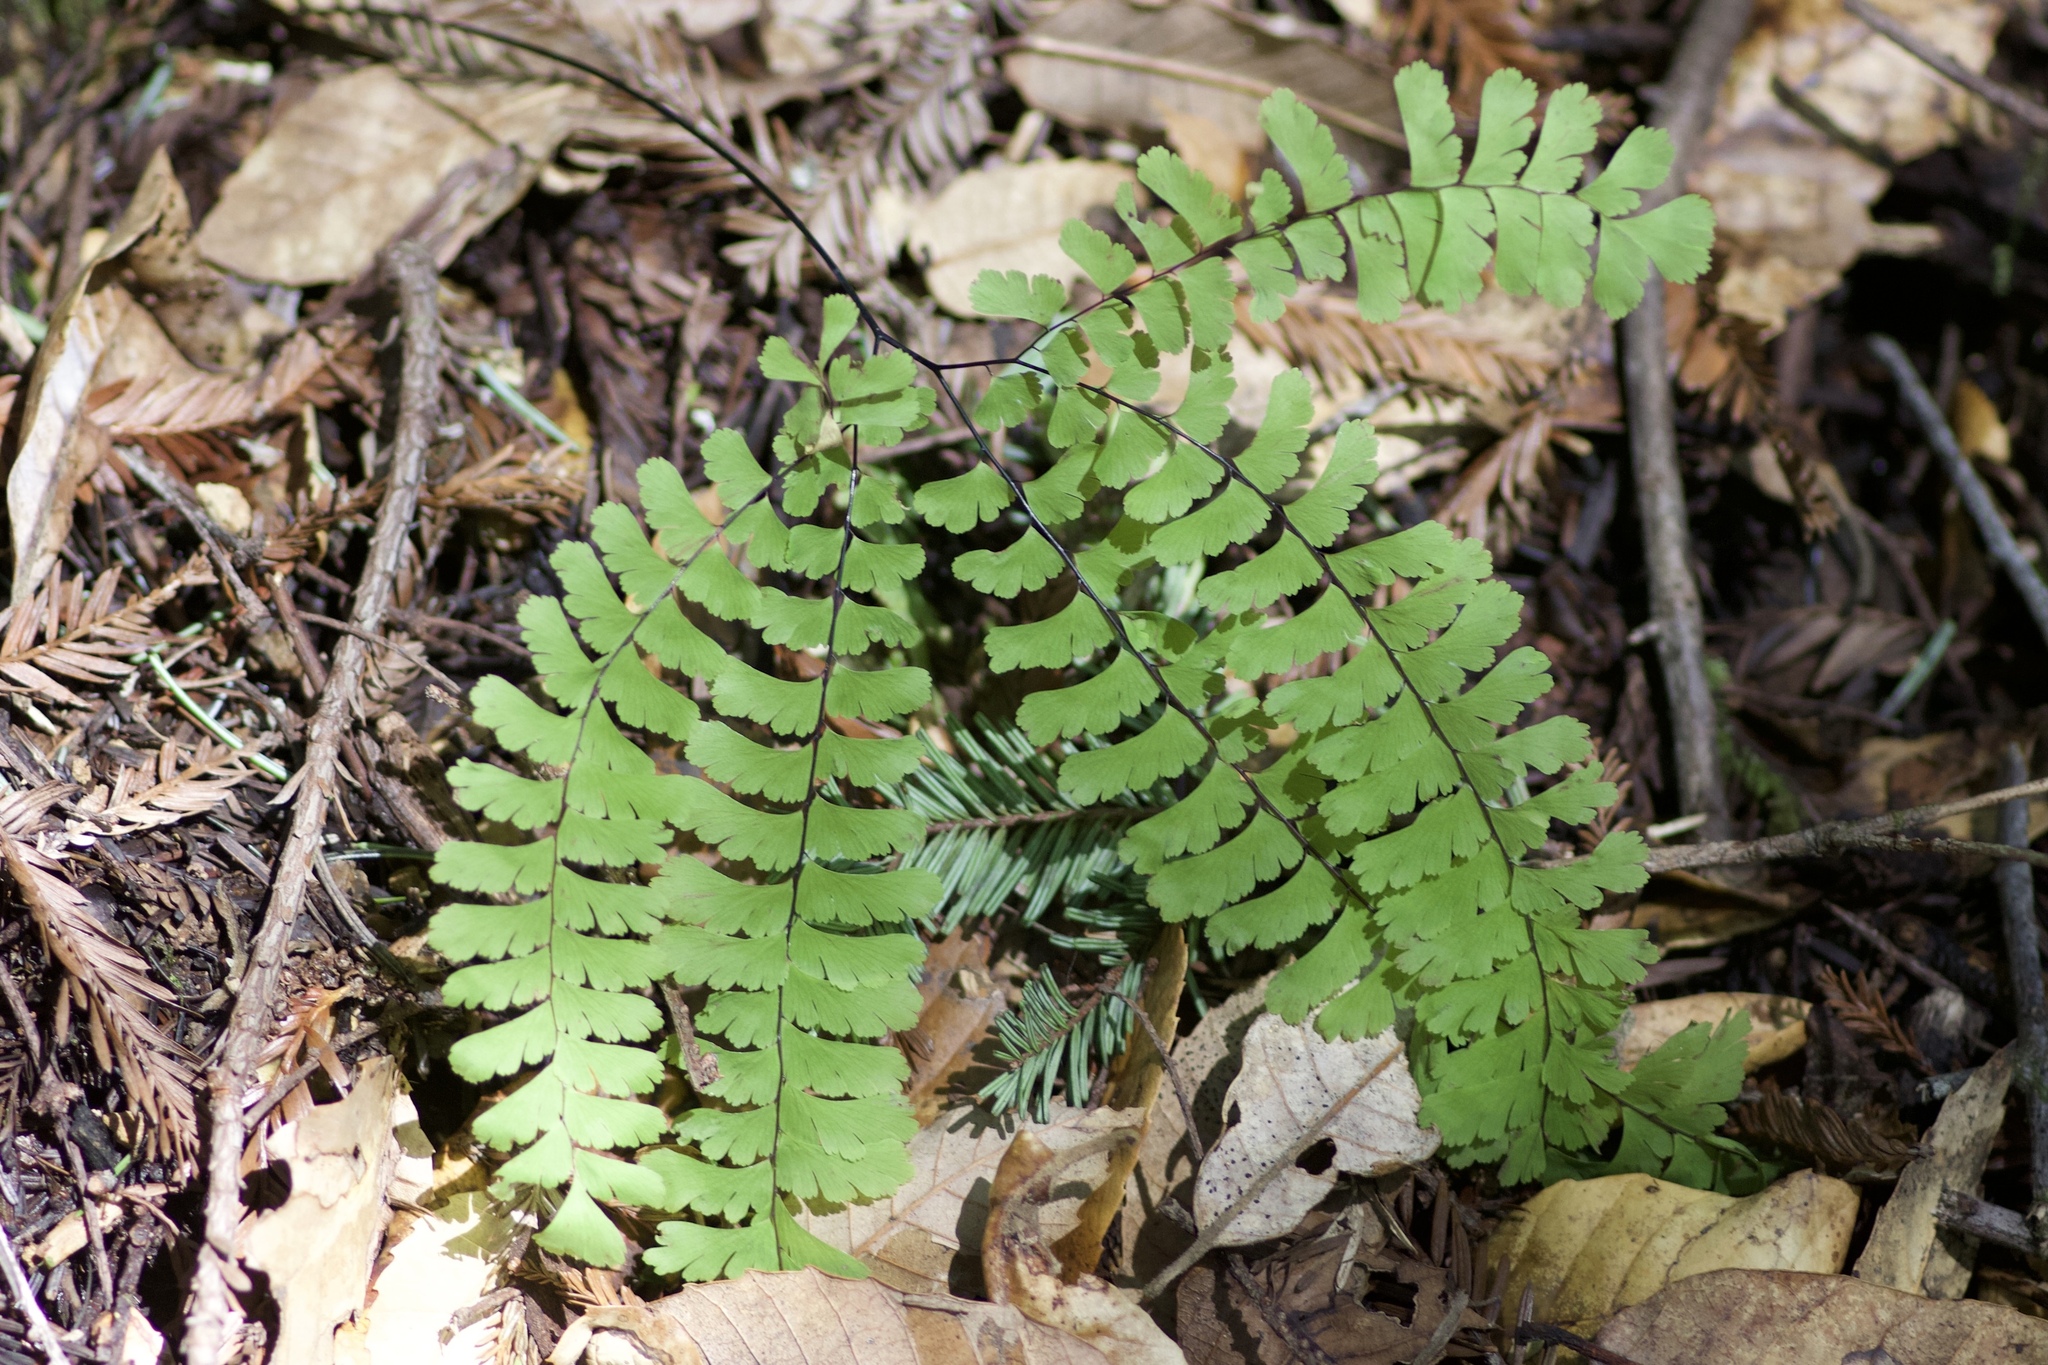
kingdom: Plantae
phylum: Tracheophyta
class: Polypodiopsida
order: Polypodiales
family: Pteridaceae
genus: Adiantum
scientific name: Adiantum aleuticum
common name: Aleutian maidenhair fern
